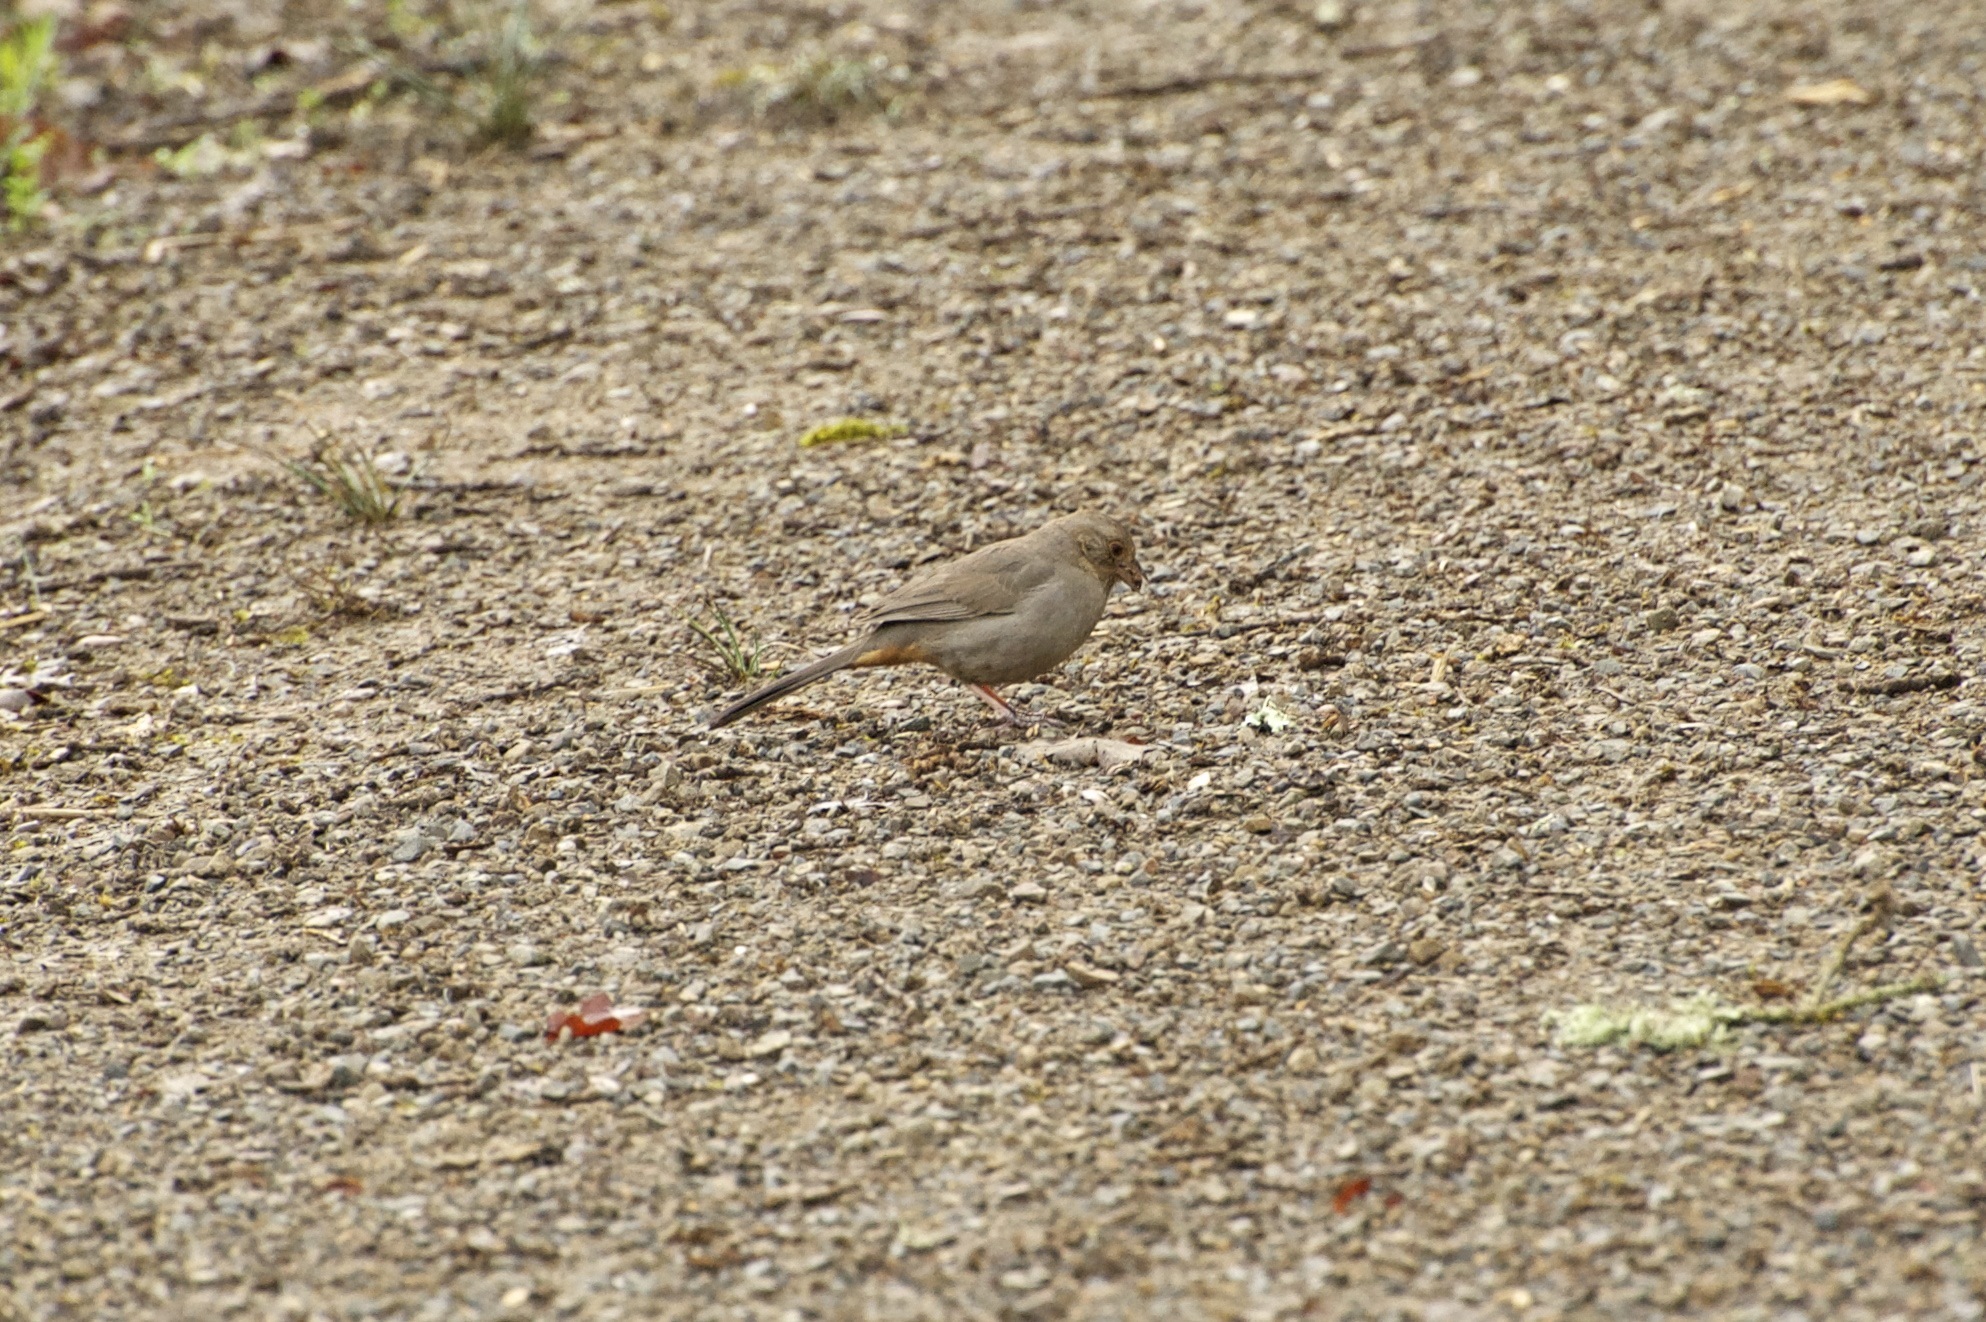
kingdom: Animalia
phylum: Chordata
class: Aves
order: Passeriformes
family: Passerellidae
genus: Melozone
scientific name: Melozone crissalis
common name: California towhee
